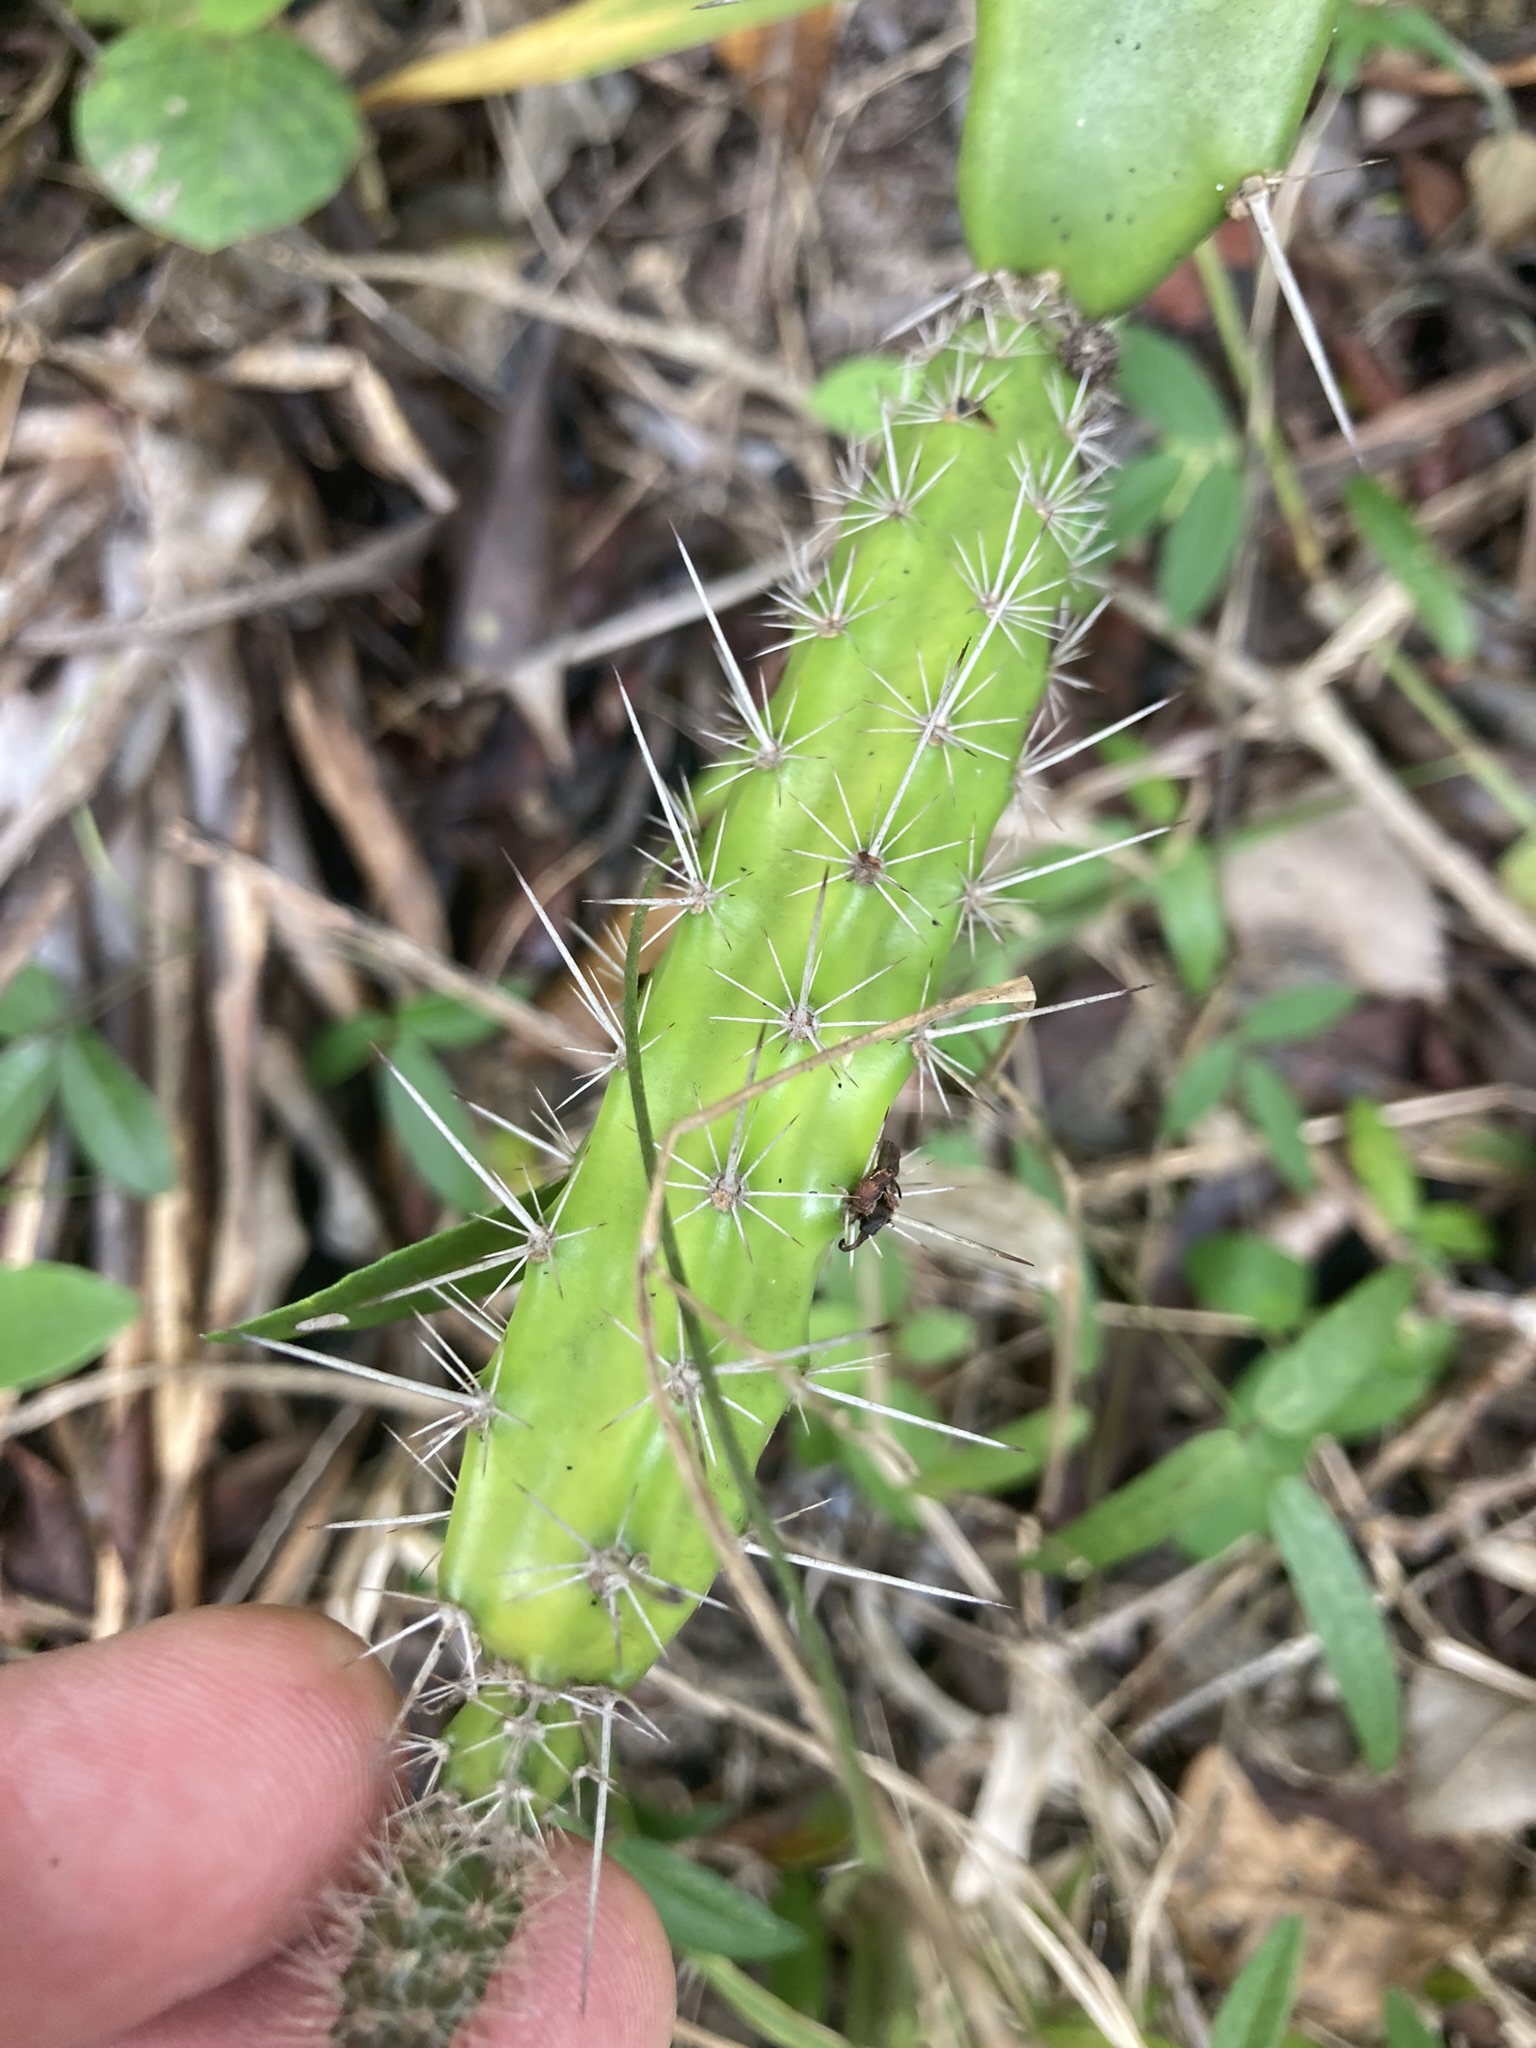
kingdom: Plantae
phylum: Tracheophyta
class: Magnoliopsida
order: Caryophyllales
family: Cactaceae
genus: Acanthocereus
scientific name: Acanthocereus tetragonus
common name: Triangle cactus
